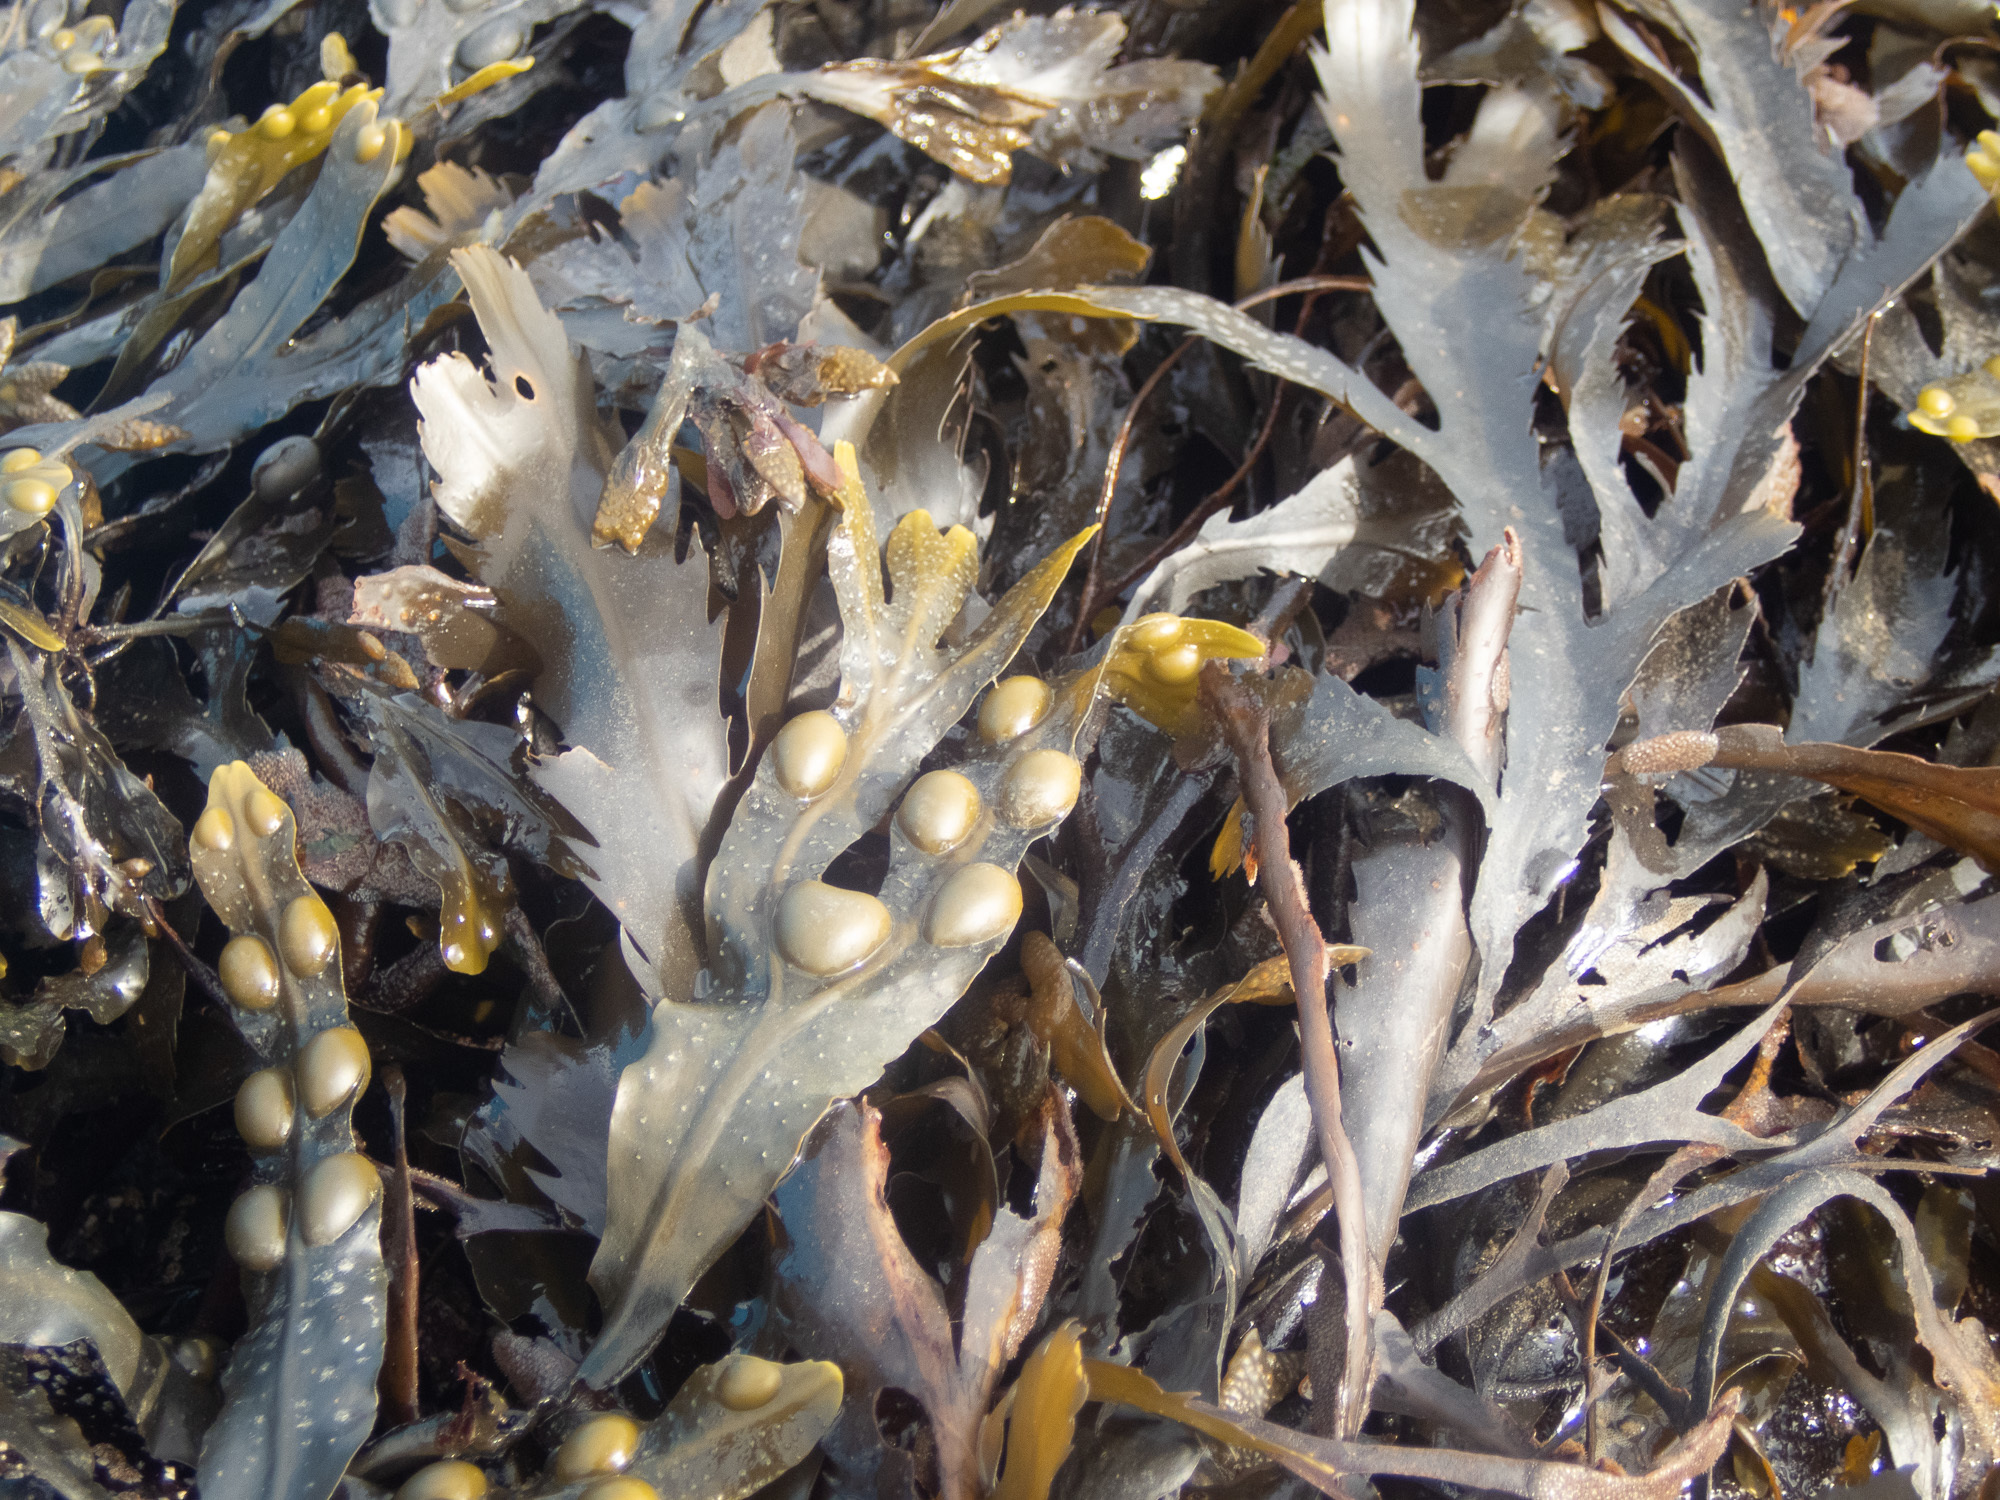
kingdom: Chromista
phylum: Ochrophyta
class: Phaeophyceae
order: Fucales
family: Fucaceae
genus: Fucus
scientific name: Fucus vesiculosus
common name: Bladder wrack
